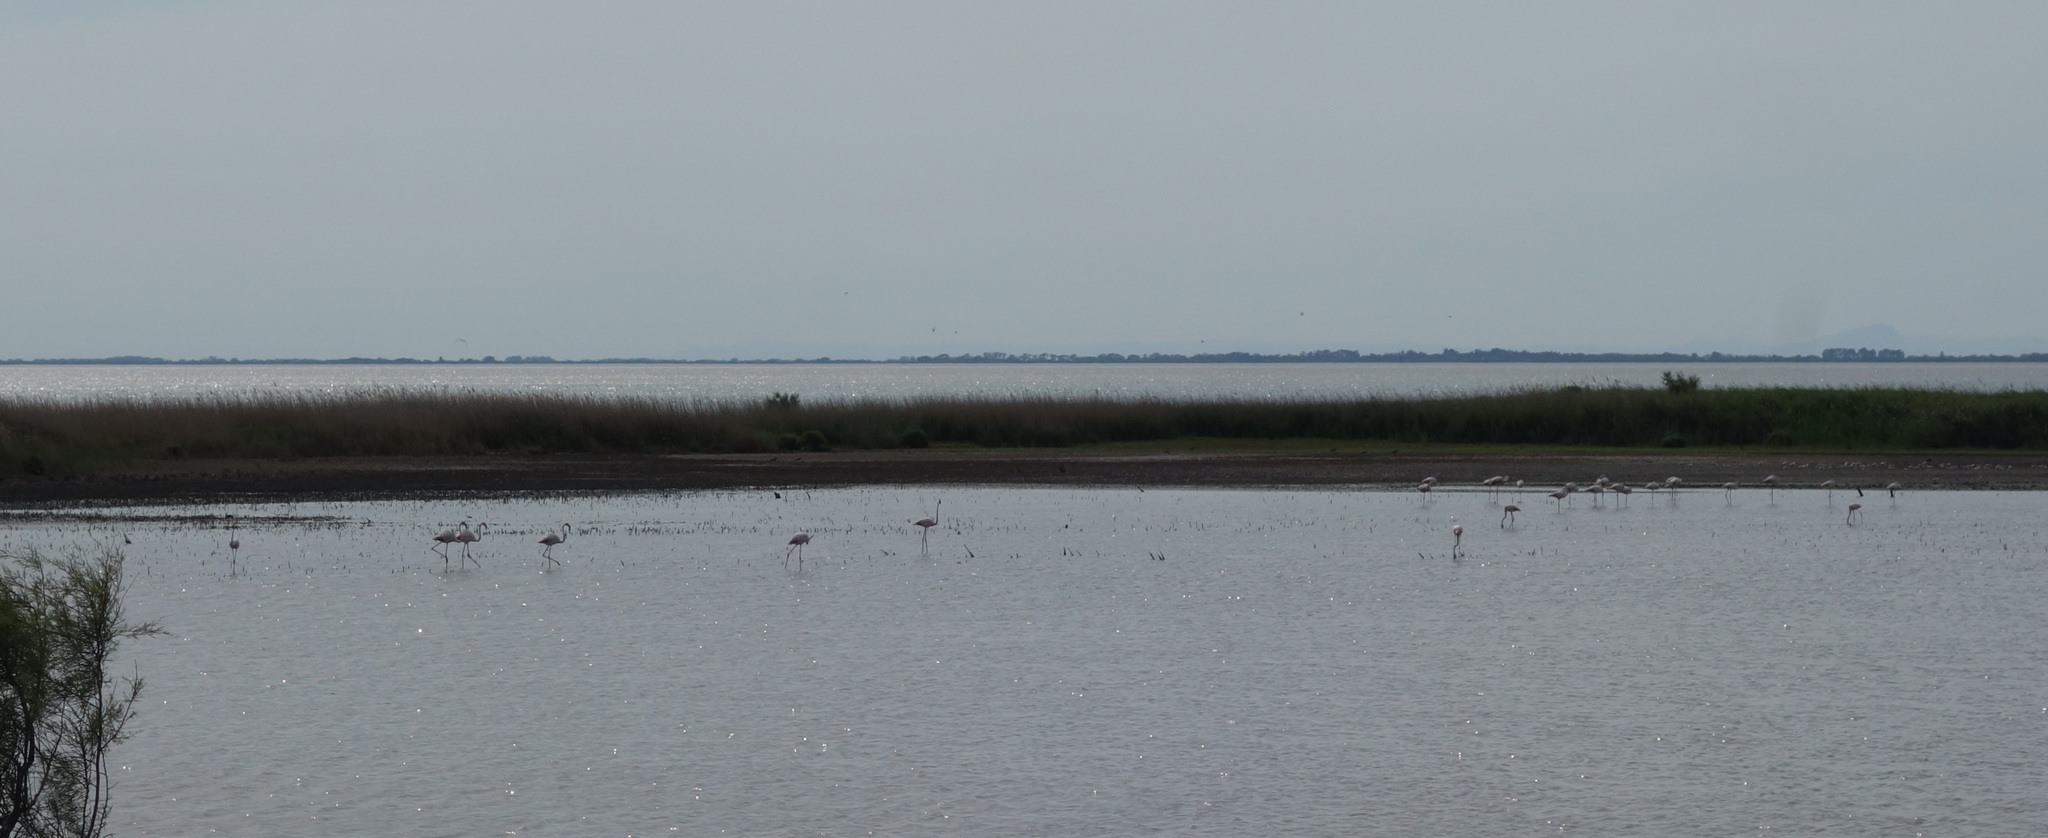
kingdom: Animalia
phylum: Chordata
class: Aves
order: Phoenicopteriformes
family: Phoenicopteridae
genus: Phoenicopterus
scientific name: Phoenicopterus roseus
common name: Greater flamingo
